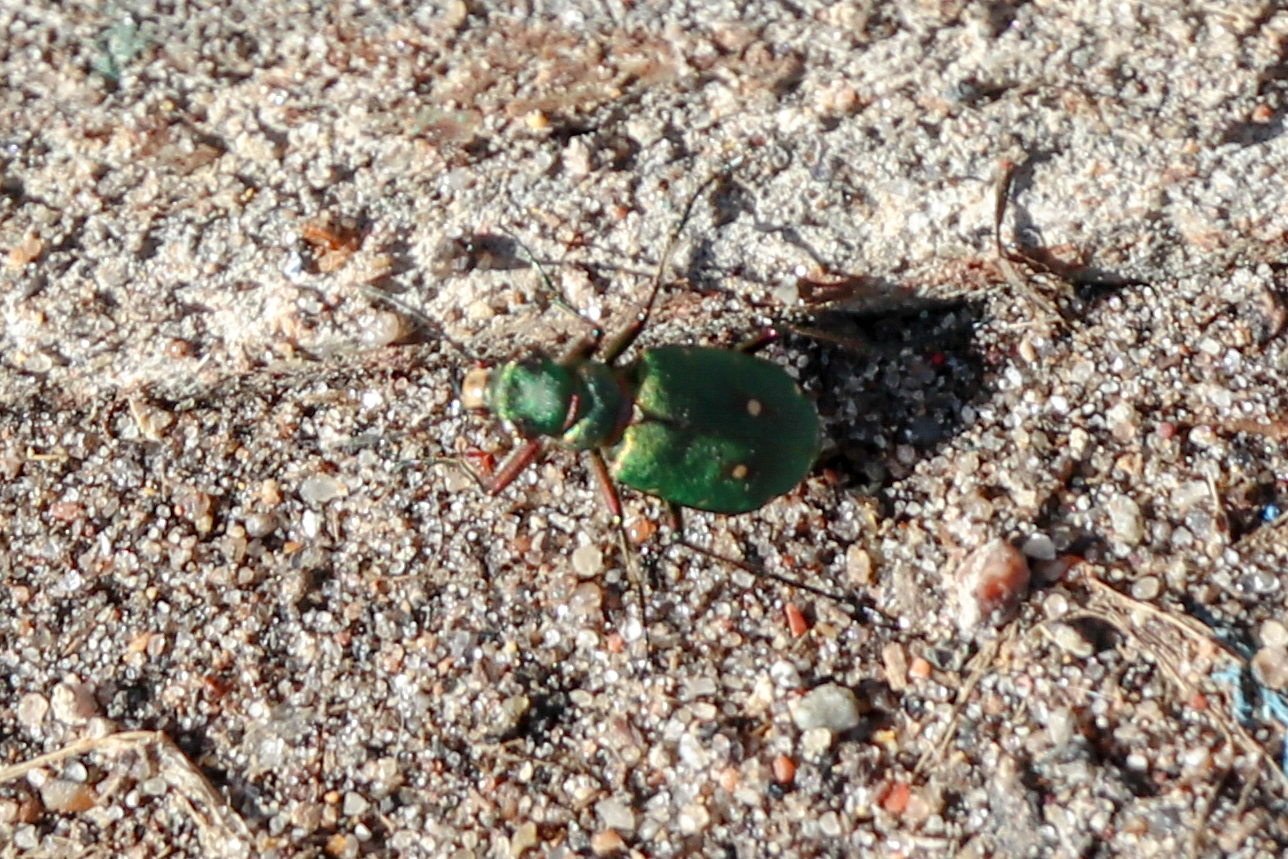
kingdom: Animalia
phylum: Arthropoda
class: Insecta
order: Coleoptera
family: Carabidae
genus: Cicindela
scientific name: Cicindela campestris
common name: Common tiger beetle
